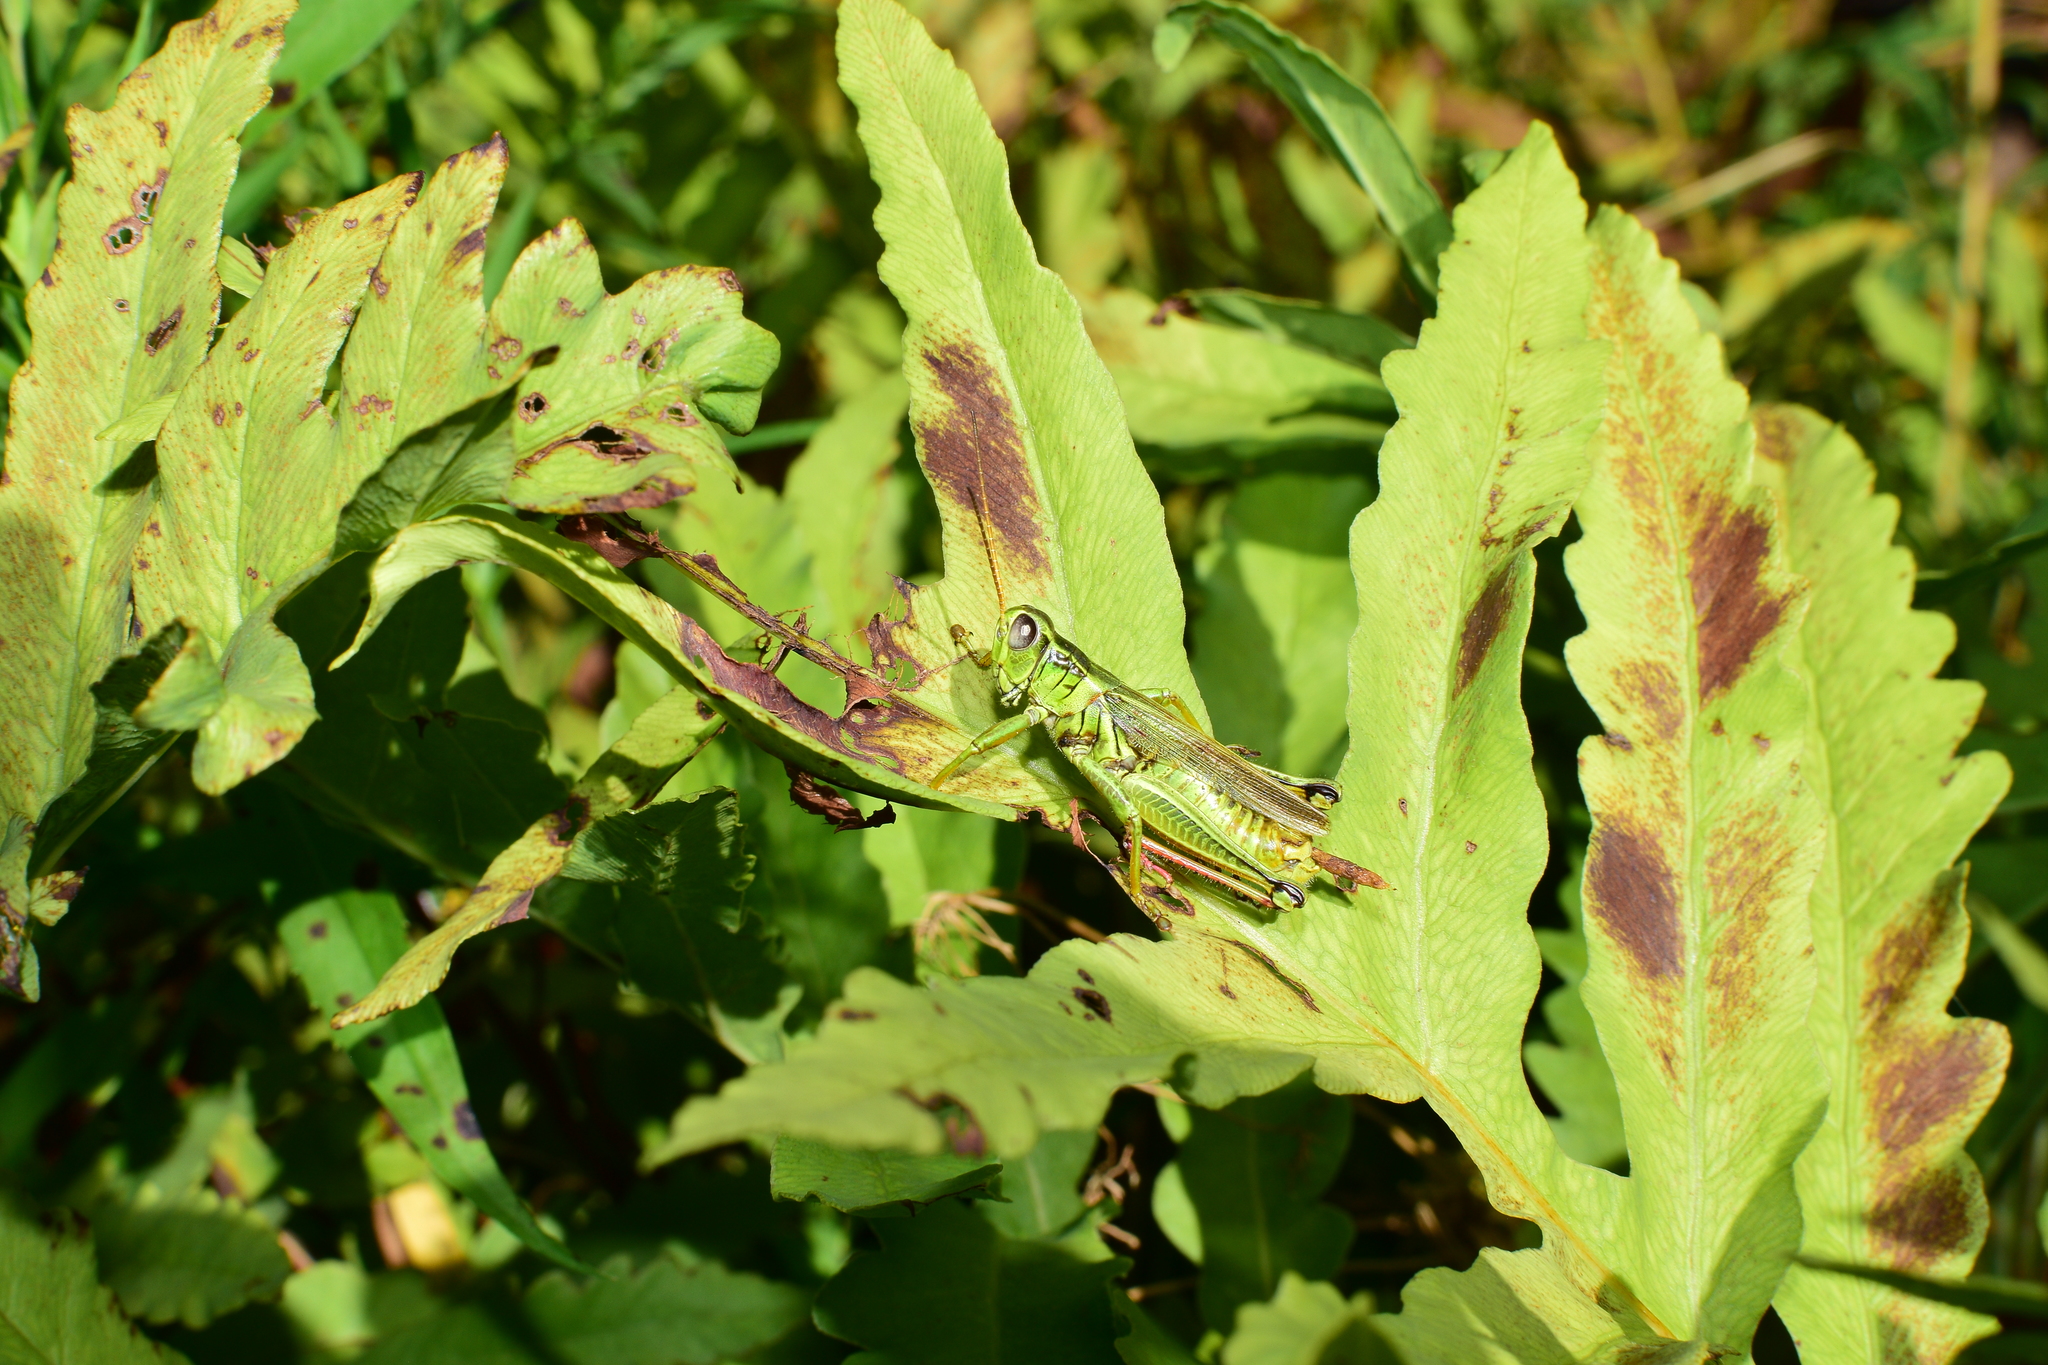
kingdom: Animalia
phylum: Arthropoda
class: Insecta
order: Orthoptera
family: Acrididae
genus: Melanoplus
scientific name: Melanoplus bivittatus
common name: Two-striped grasshopper
